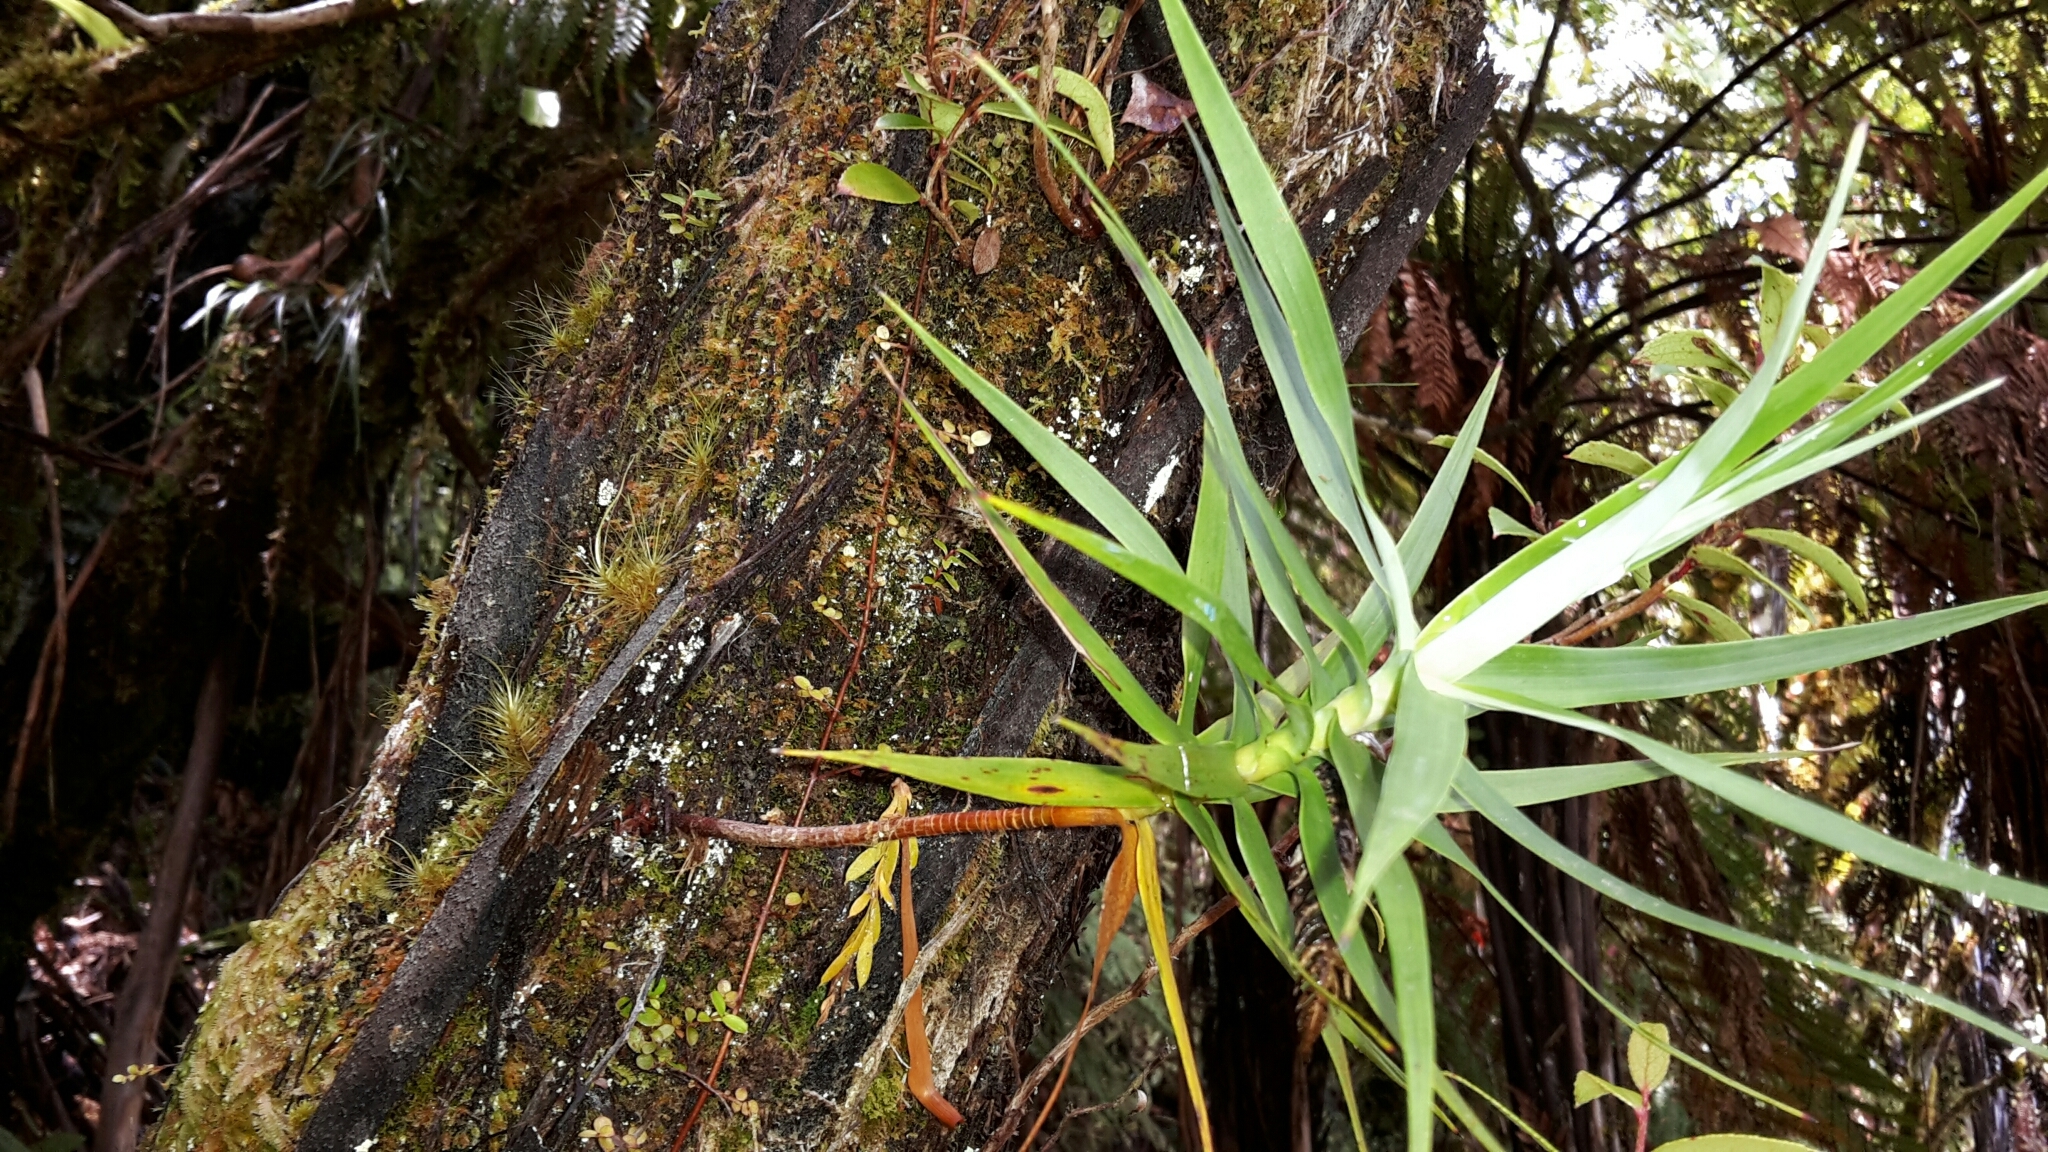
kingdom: Plantae
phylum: Tracheophyta
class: Magnoliopsida
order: Ericales
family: Ericaceae
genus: Dracophyllum
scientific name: Dracophyllum strictum
